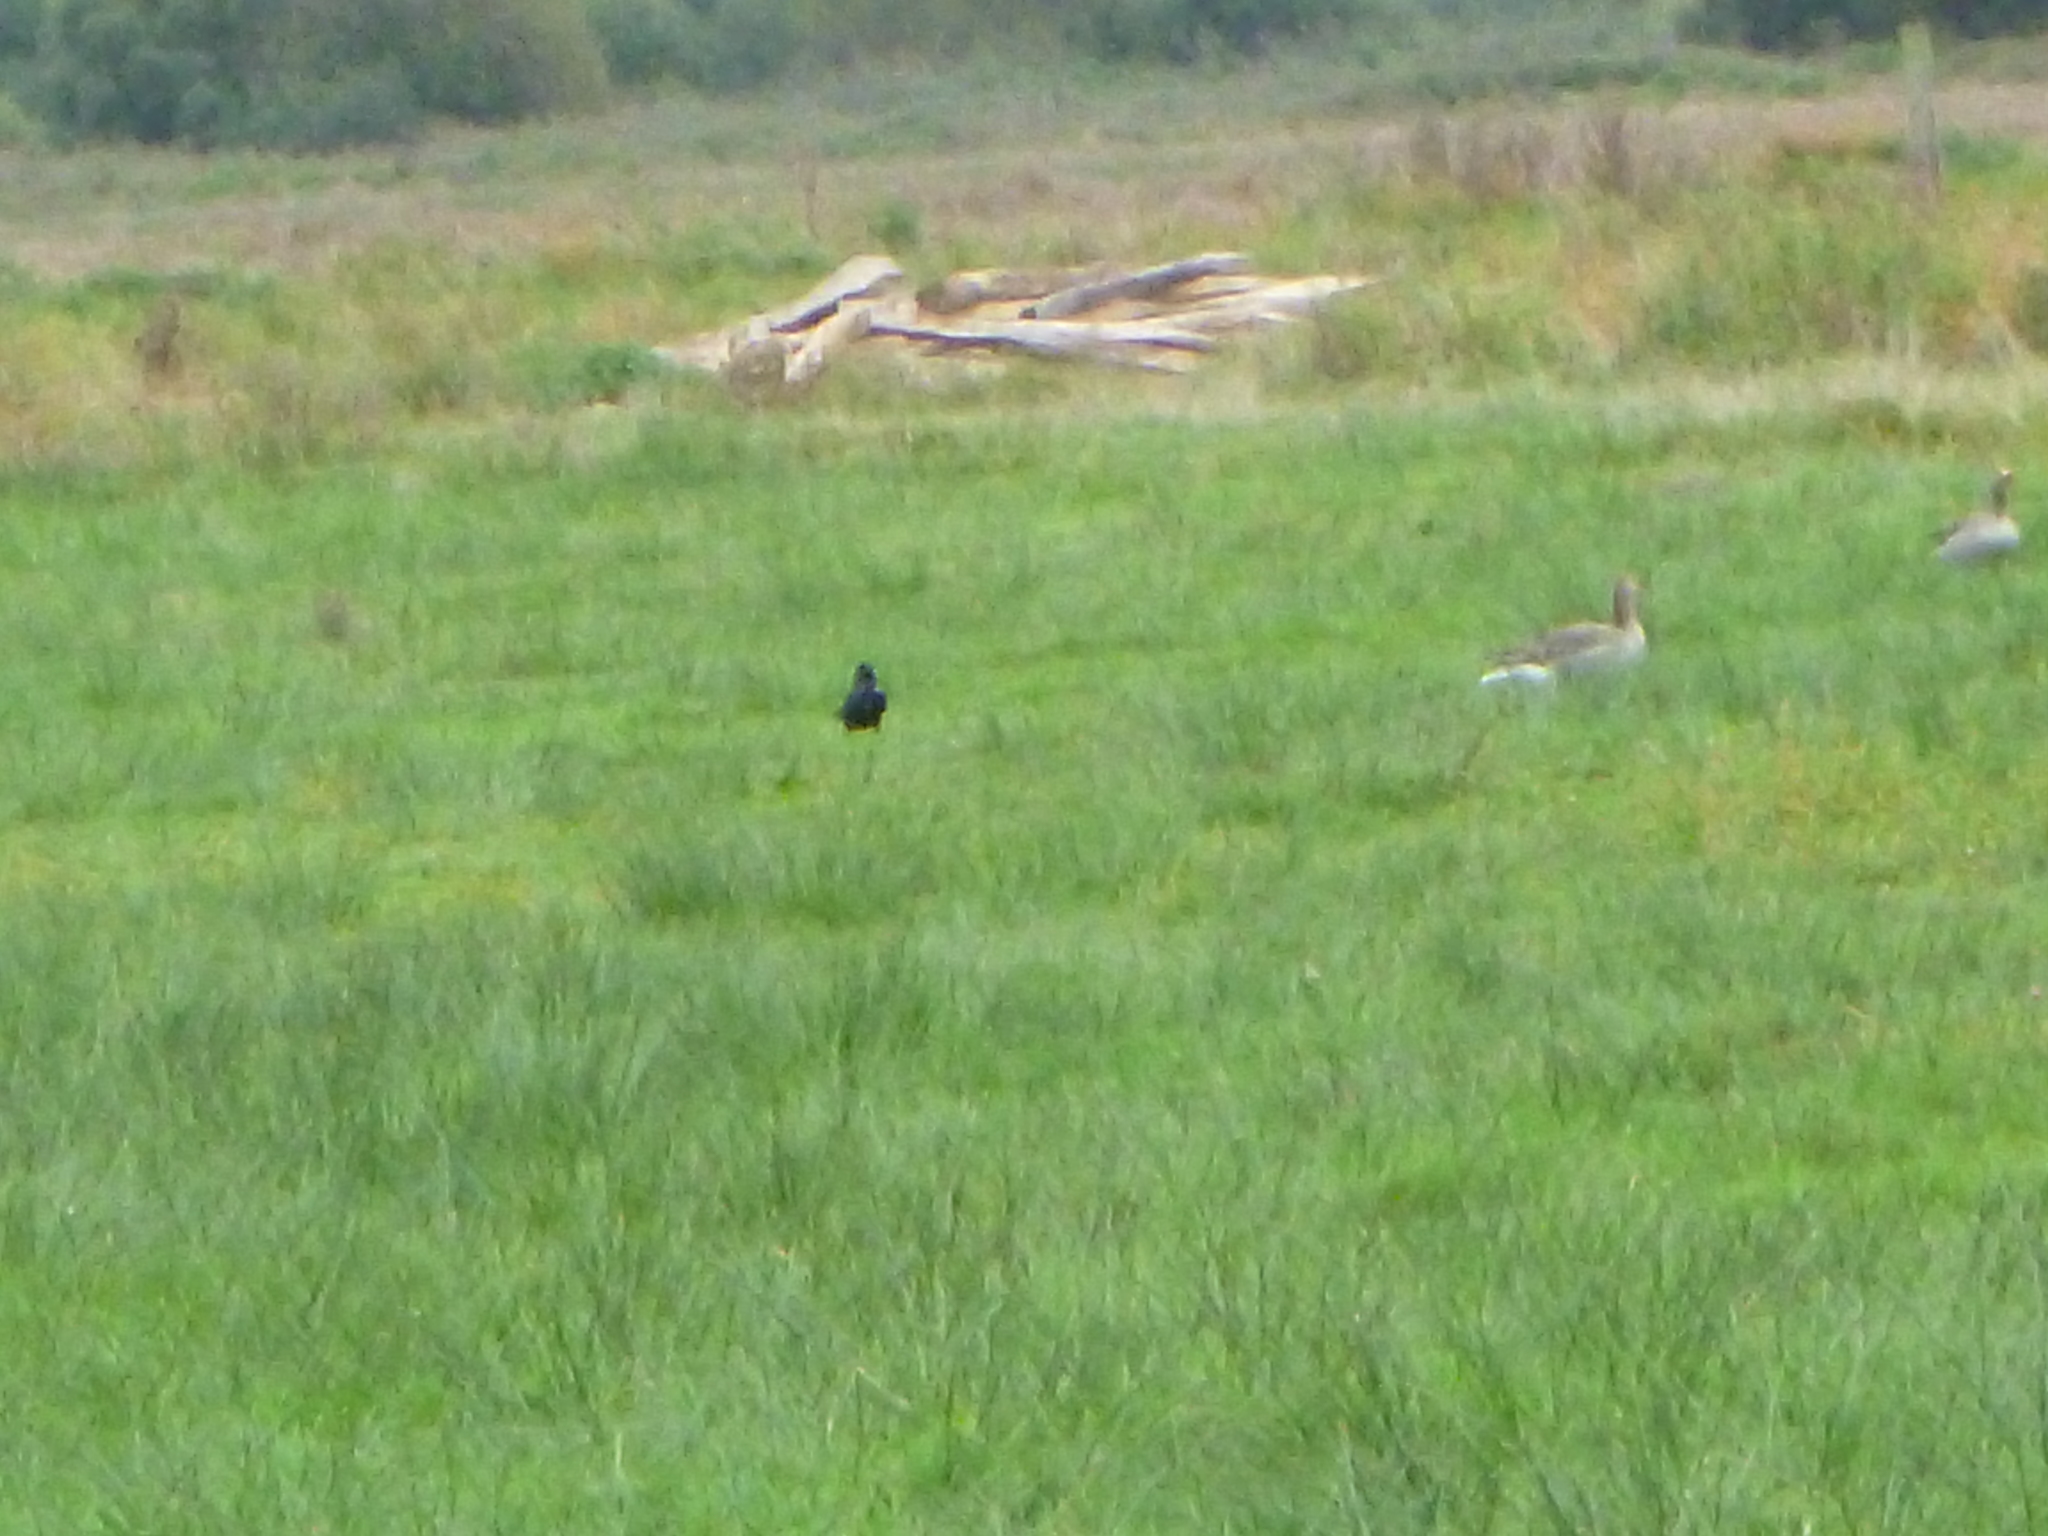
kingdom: Animalia
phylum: Chordata
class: Aves
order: Passeriformes
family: Corvidae
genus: Corvus
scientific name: Corvus corone
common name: Carrion crow
